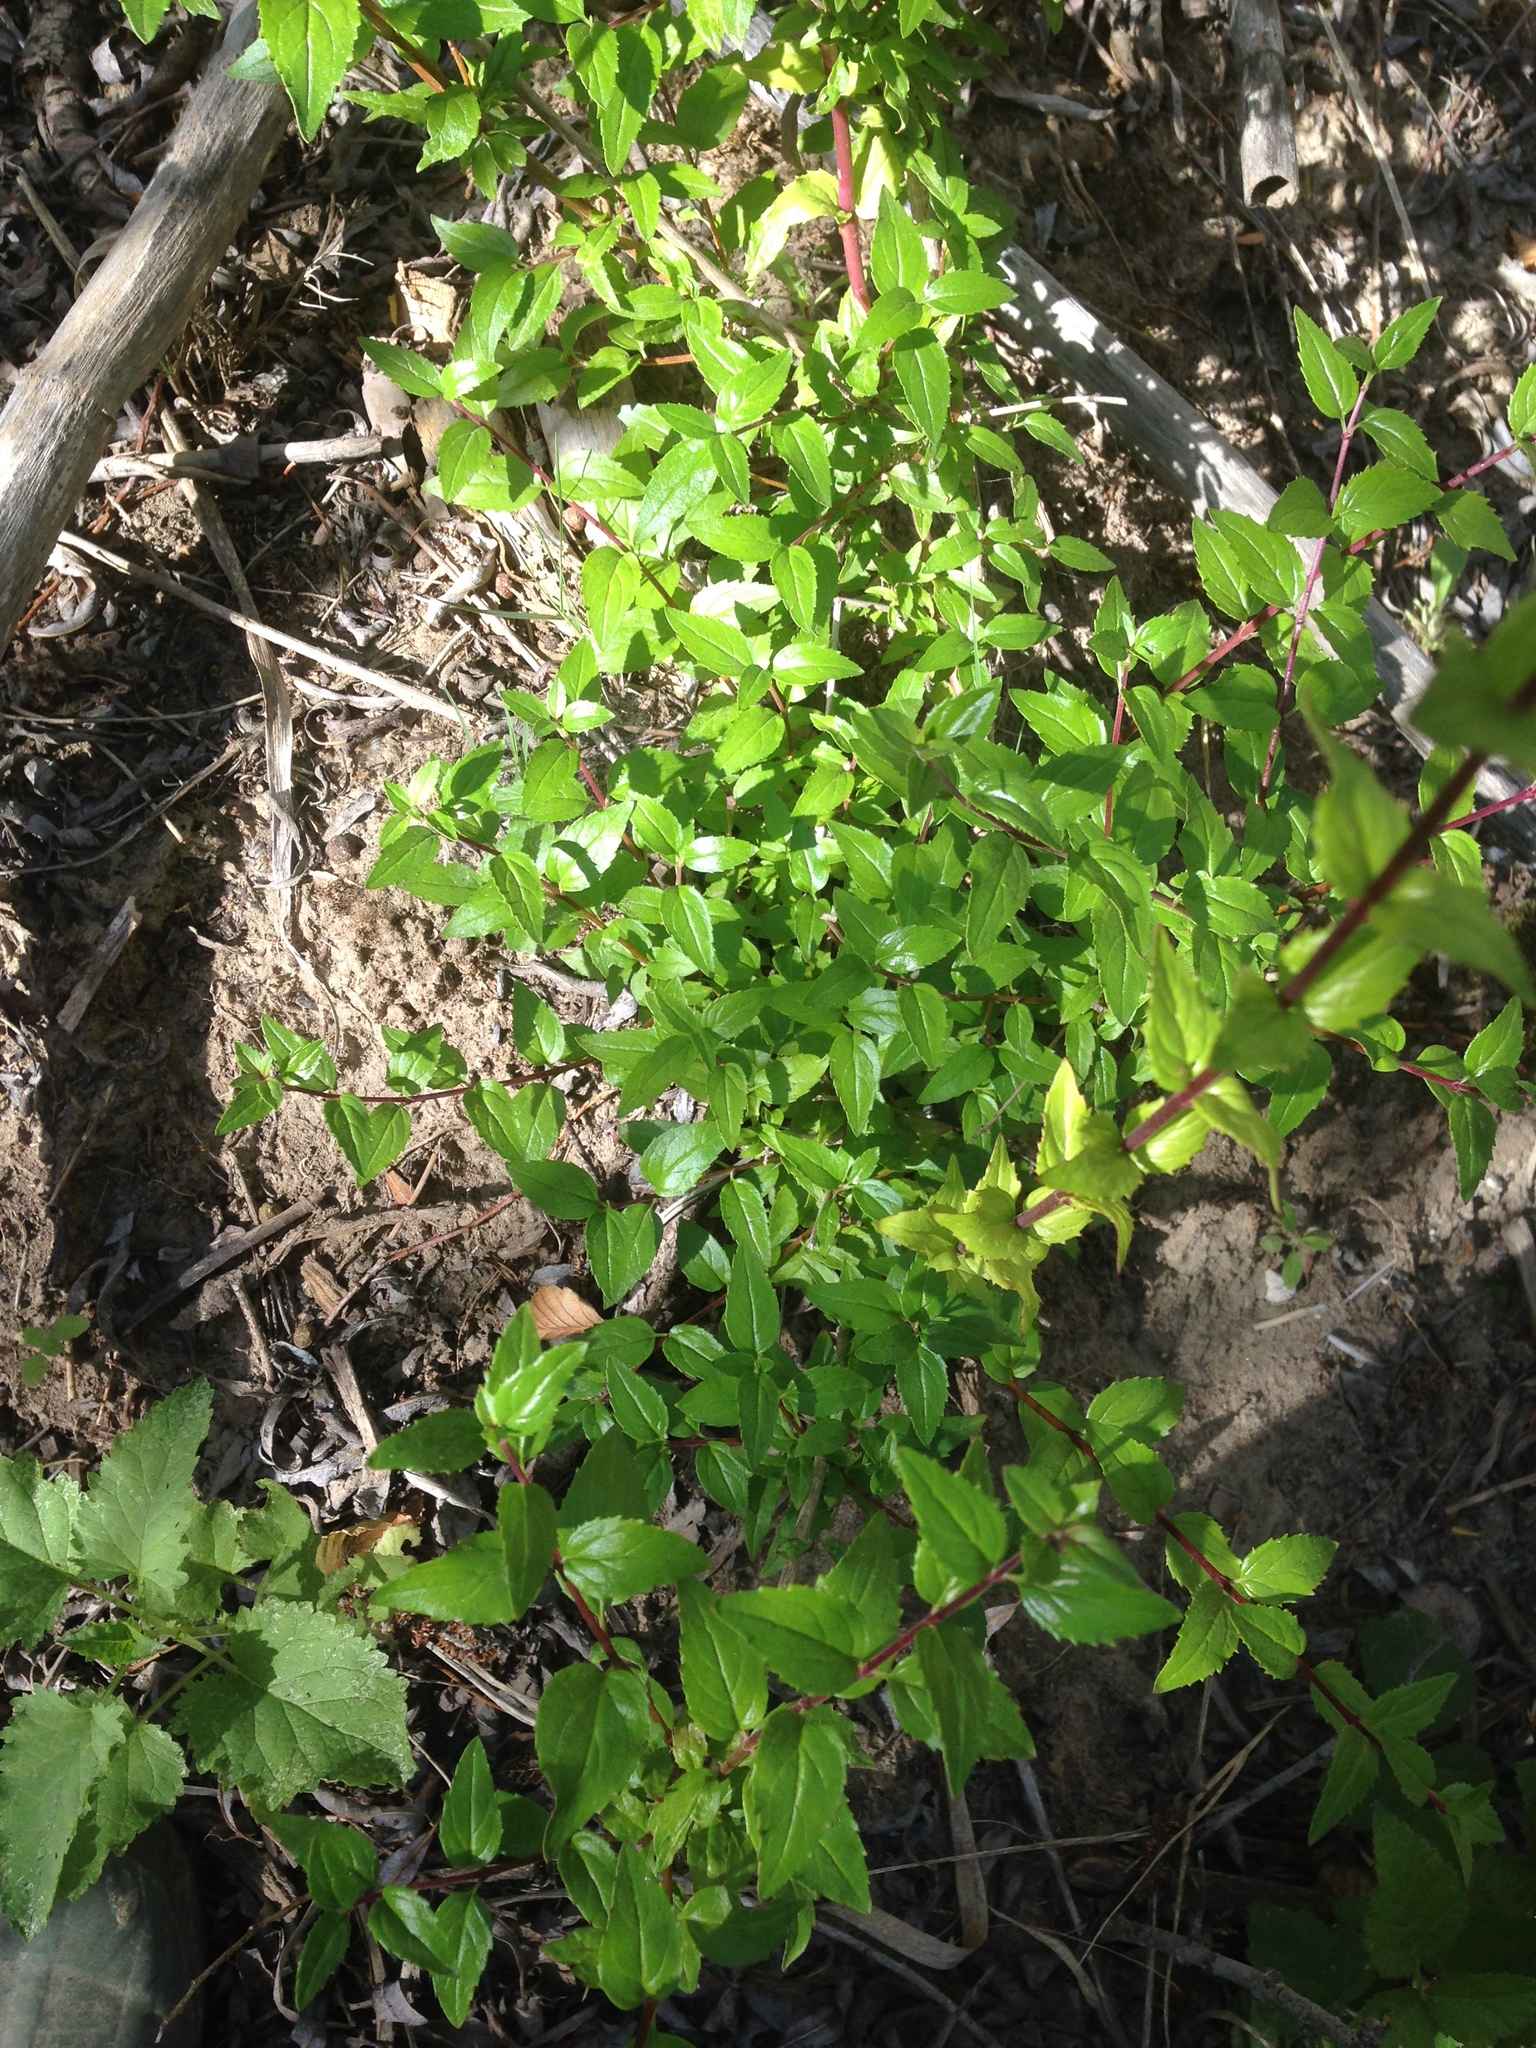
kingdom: Plantae
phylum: Tracheophyta
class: Magnoliopsida
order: Lamiales
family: Plantaginaceae
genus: Keckiella
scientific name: Keckiella cordifolia
